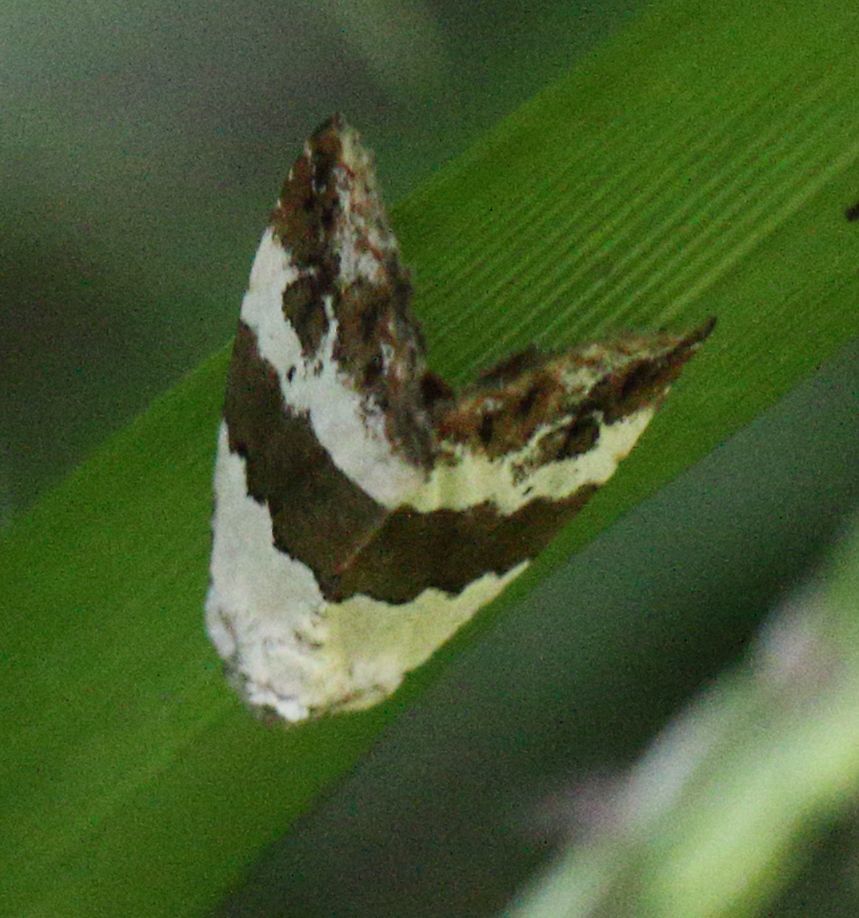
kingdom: Animalia
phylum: Arthropoda
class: Insecta
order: Lepidoptera
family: Noctuidae
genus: Maliattha
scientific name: Maliattha subblandula
